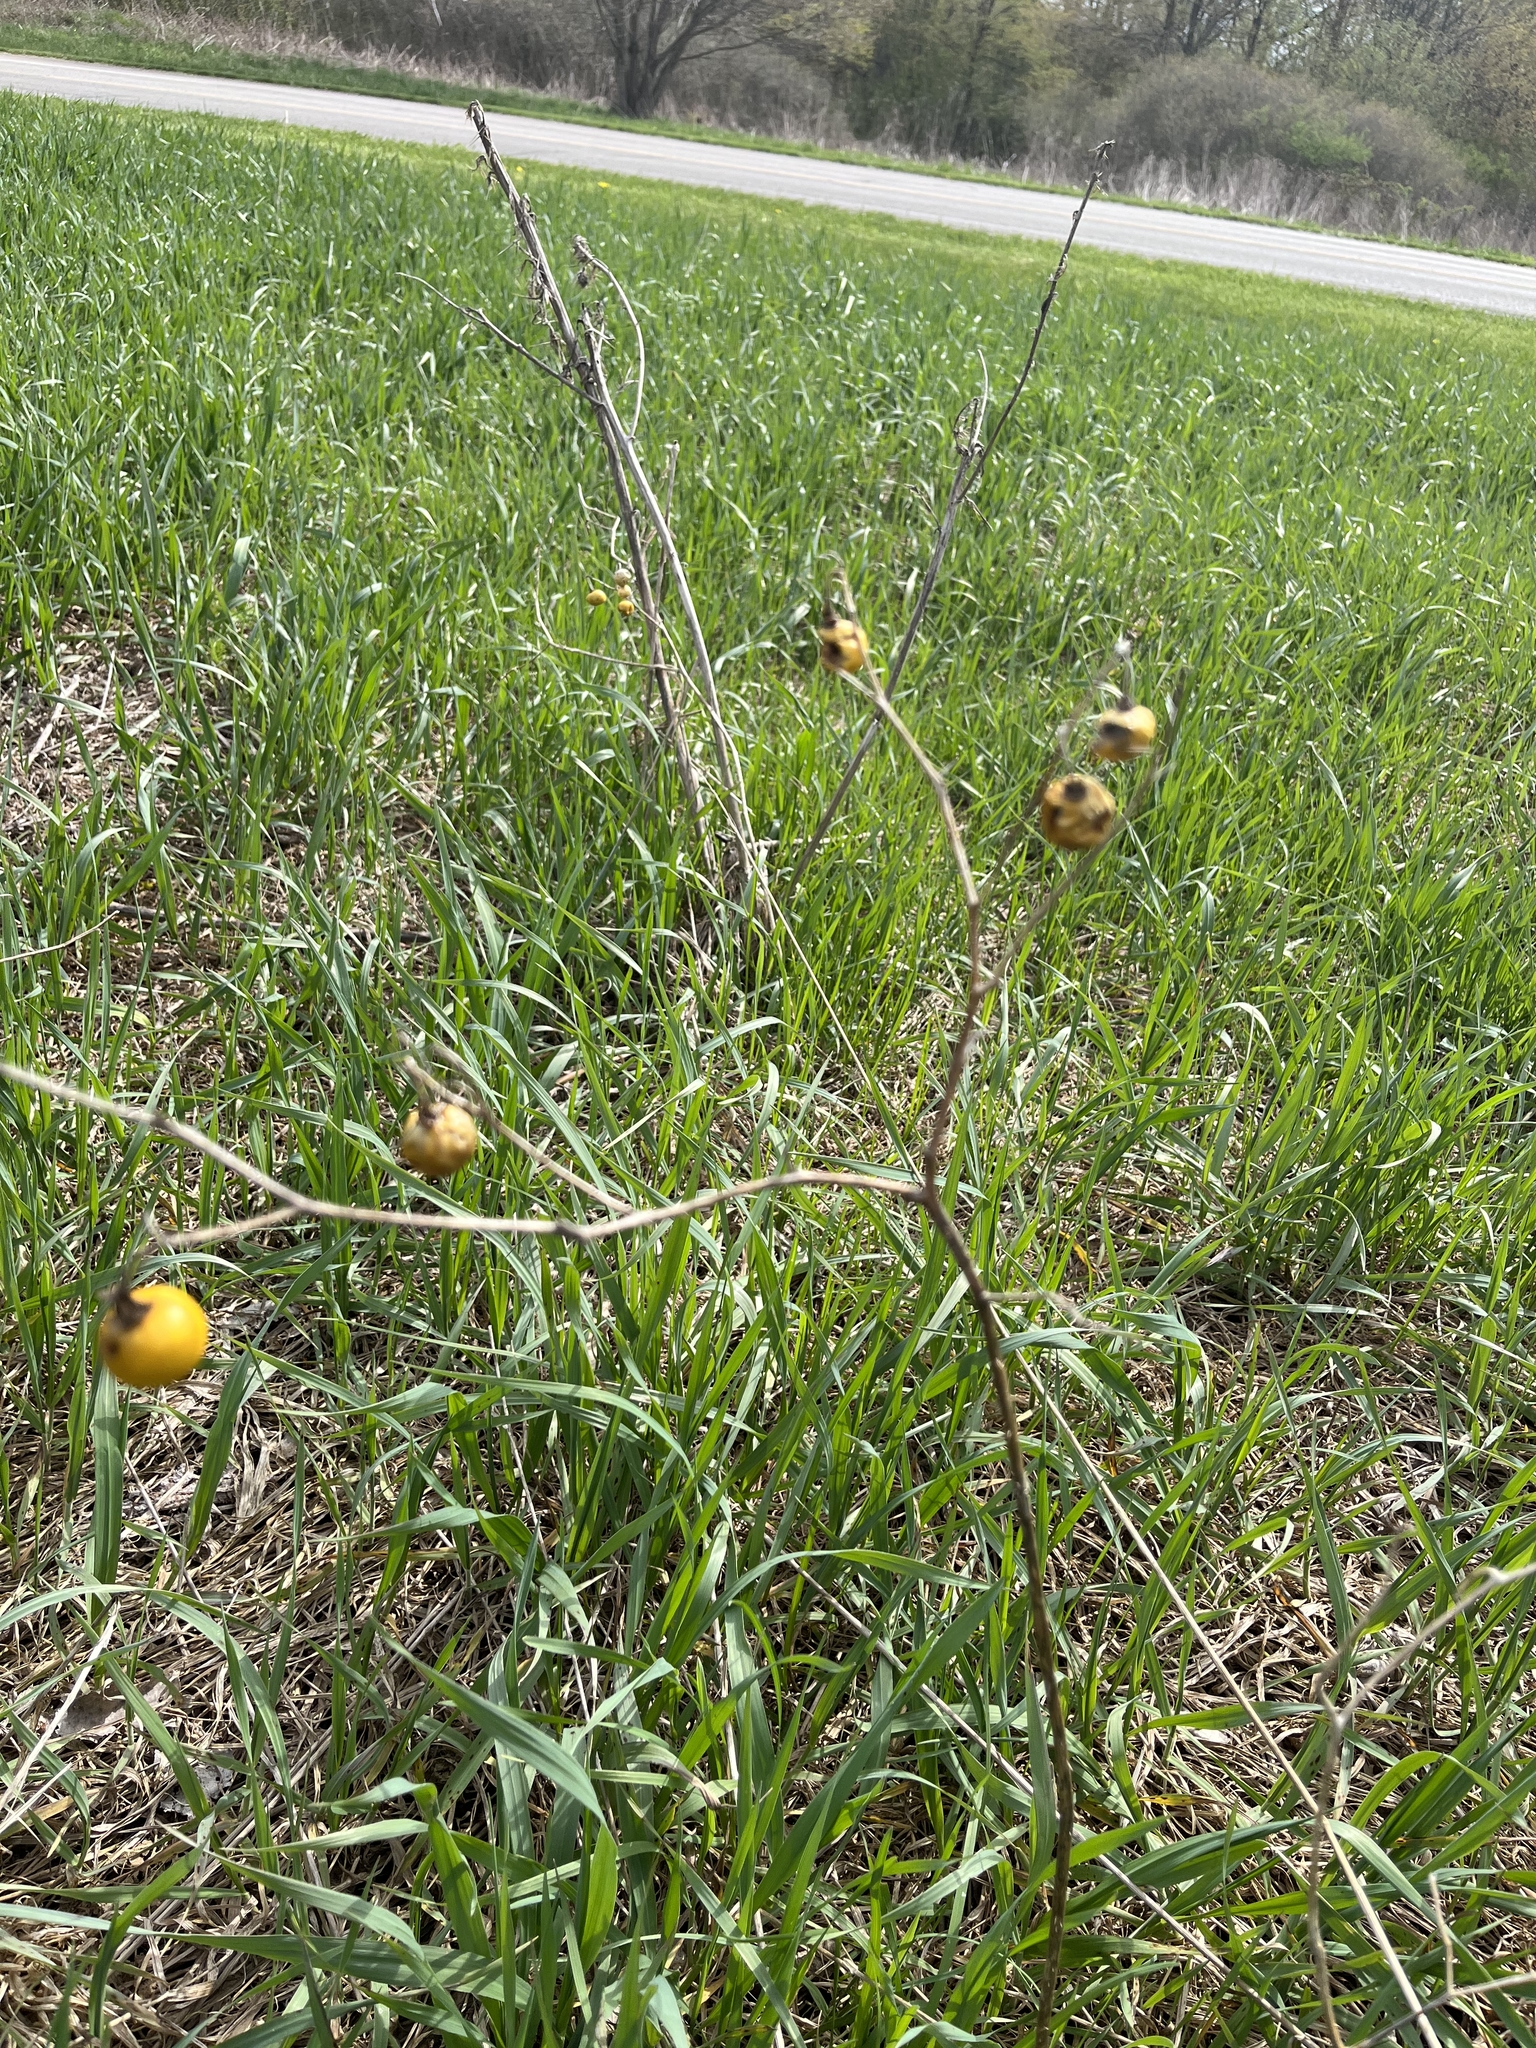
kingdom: Plantae
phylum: Tracheophyta
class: Magnoliopsida
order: Solanales
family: Solanaceae
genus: Solanum
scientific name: Solanum carolinense
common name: Horse-nettle
